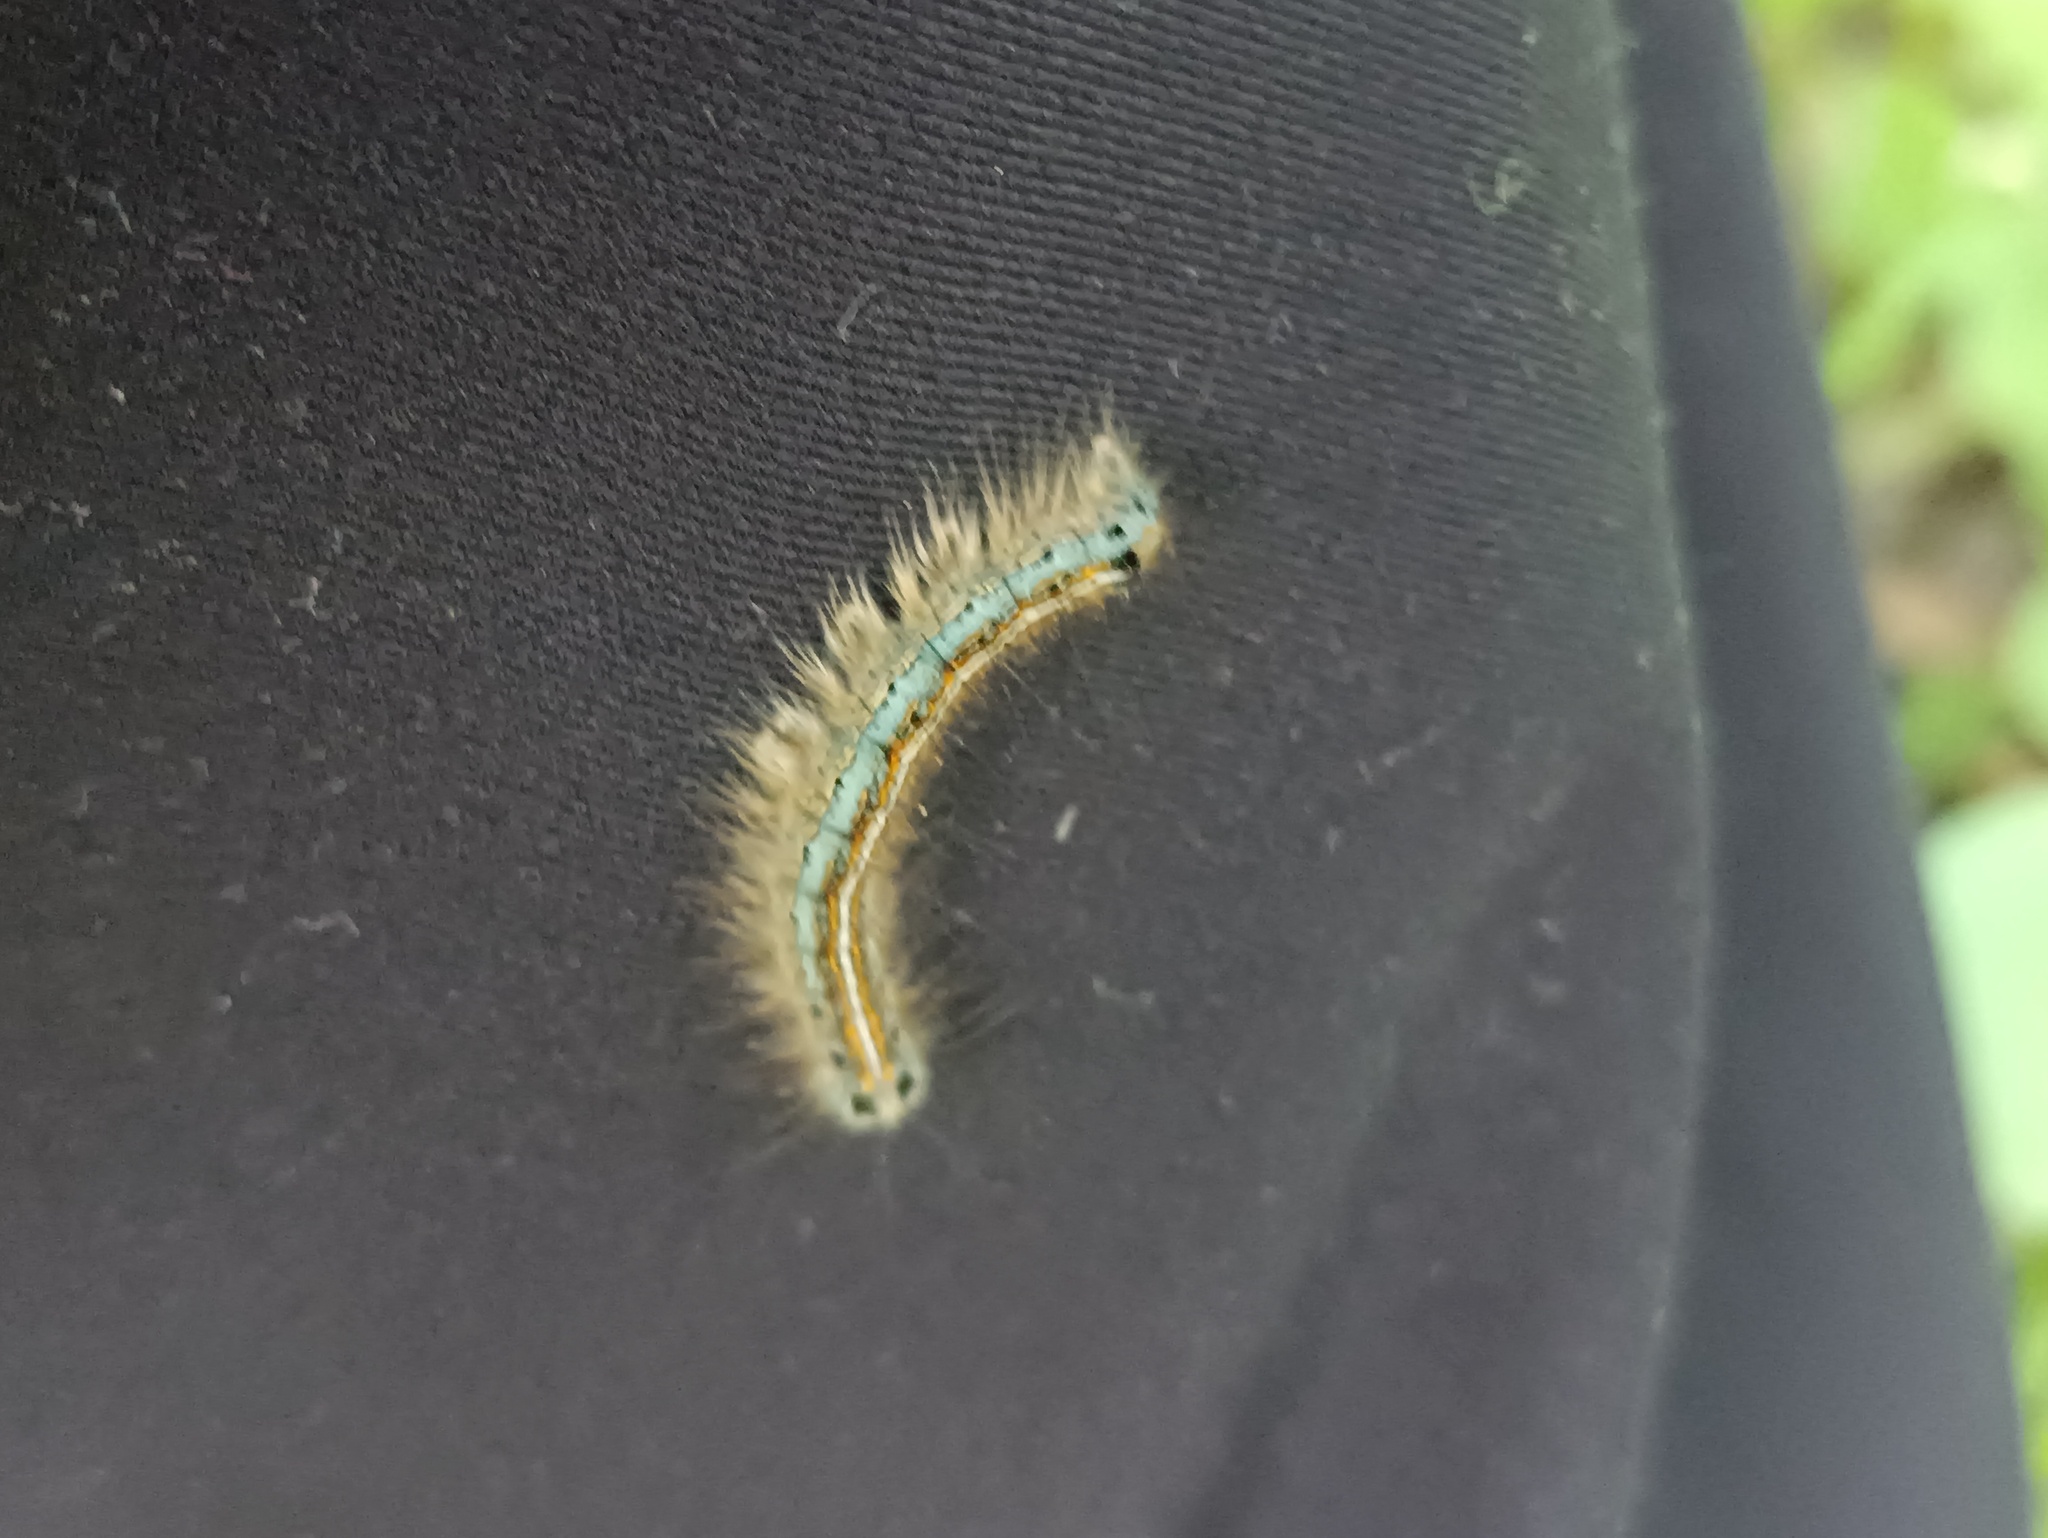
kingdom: Animalia
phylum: Arthropoda
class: Insecta
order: Lepidoptera
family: Lasiocampidae
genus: Malacosoma
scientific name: Malacosoma neustria
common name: The lackey
